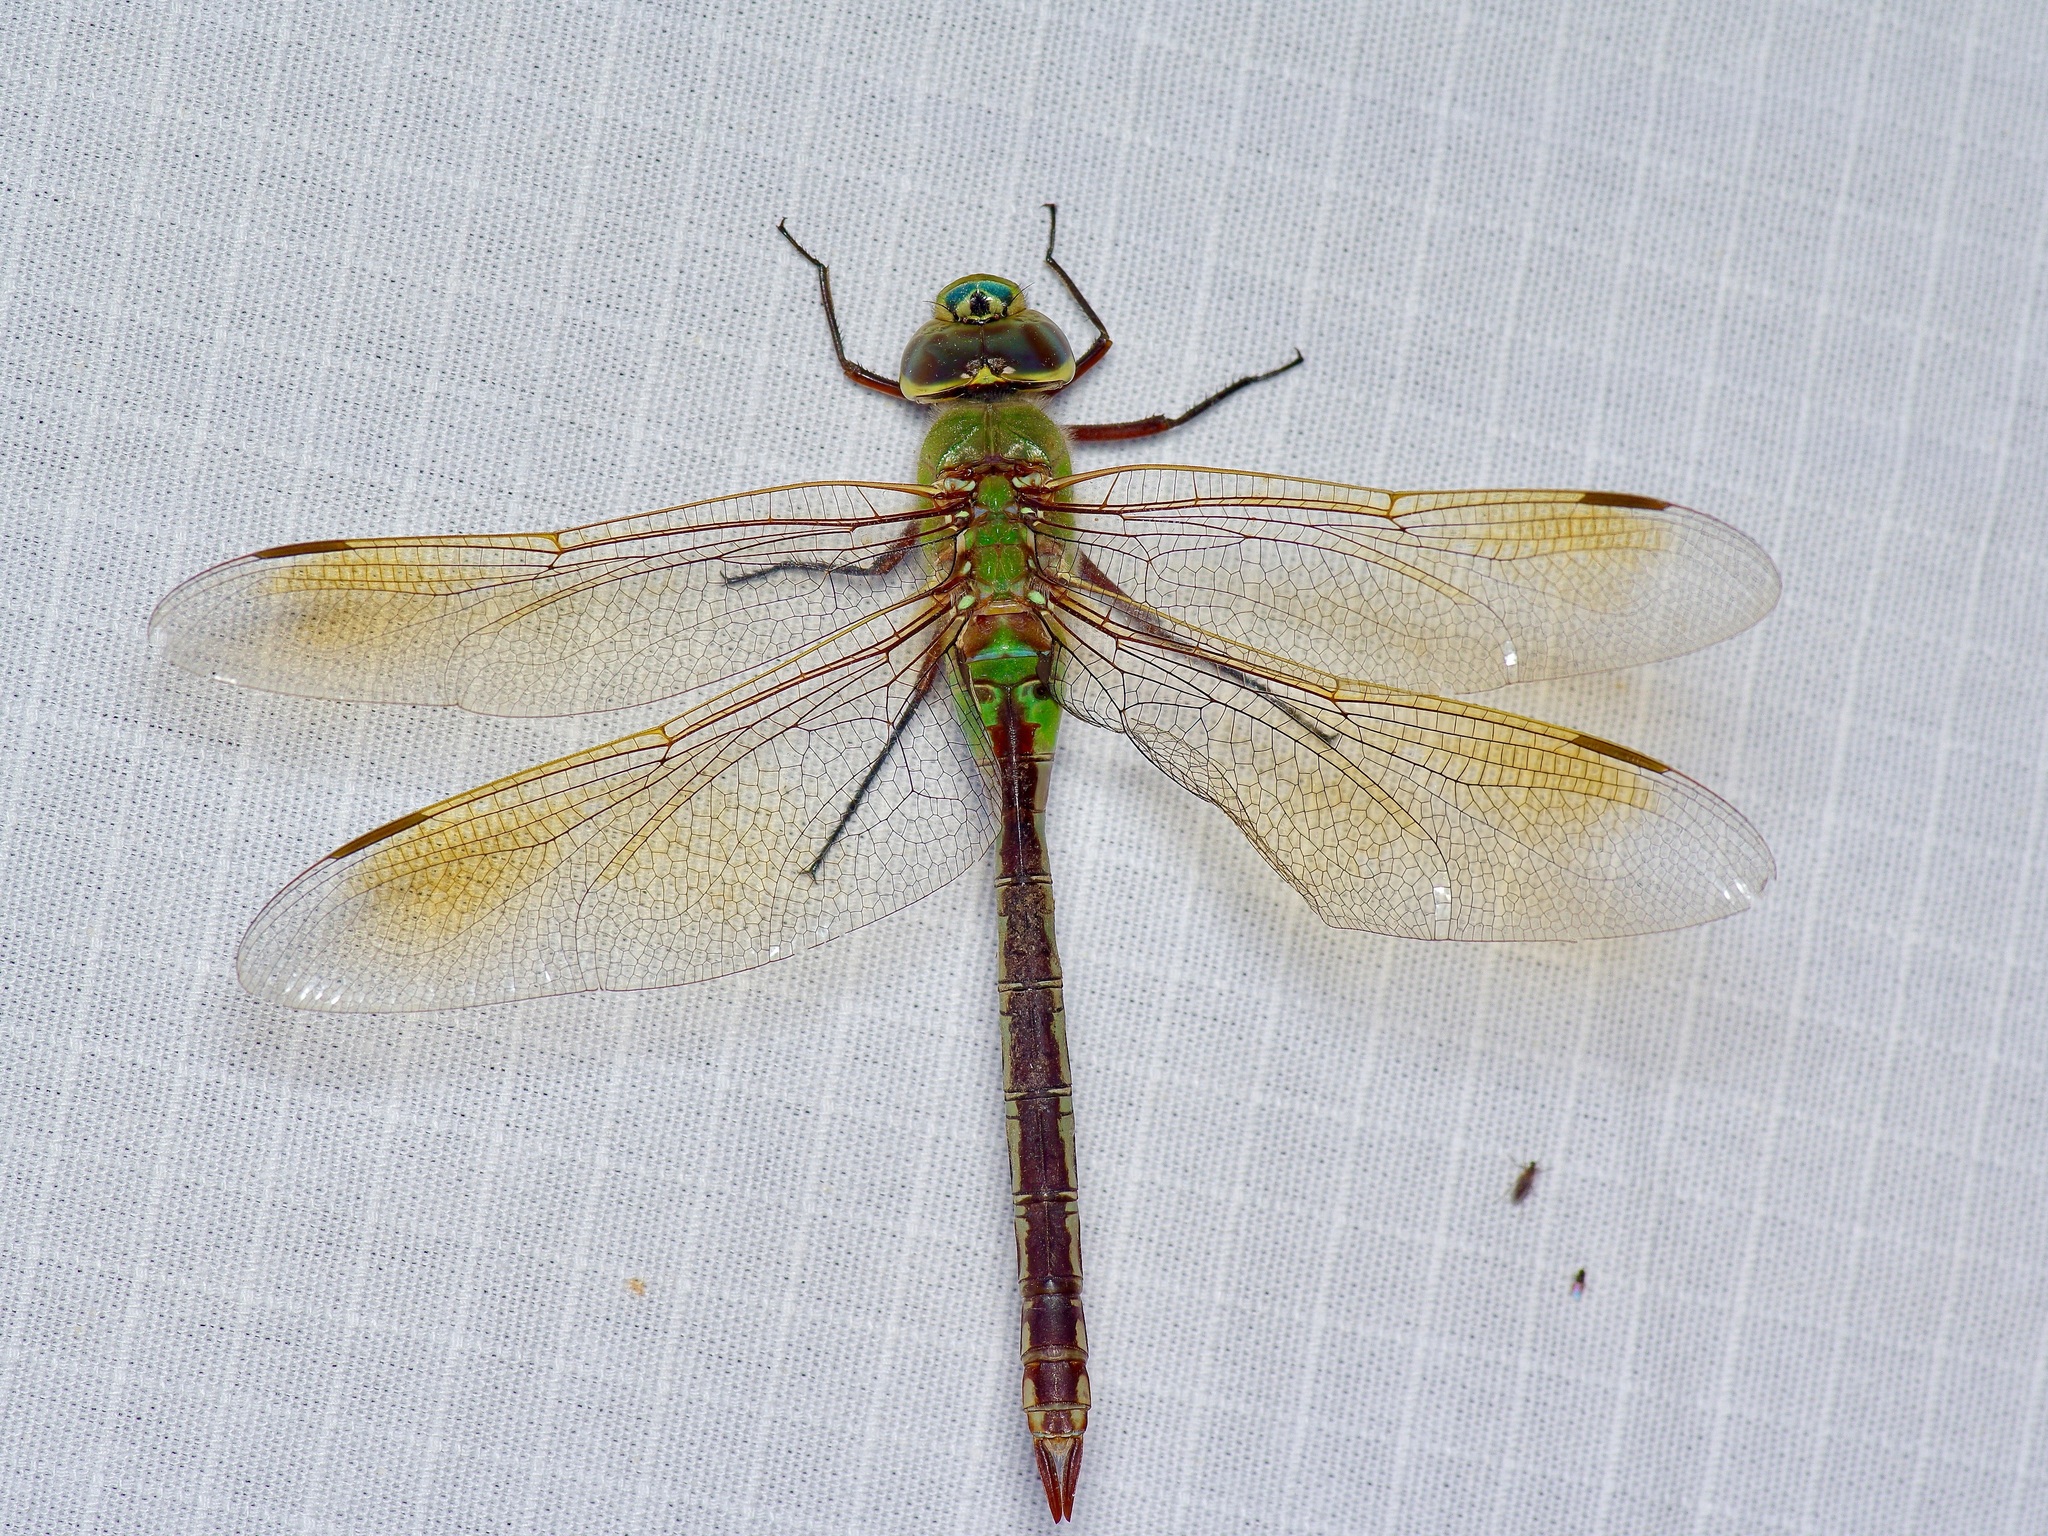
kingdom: Animalia
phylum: Arthropoda
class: Insecta
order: Odonata
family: Aeshnidae
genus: Anax
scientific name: Anax junius
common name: Common green darner
